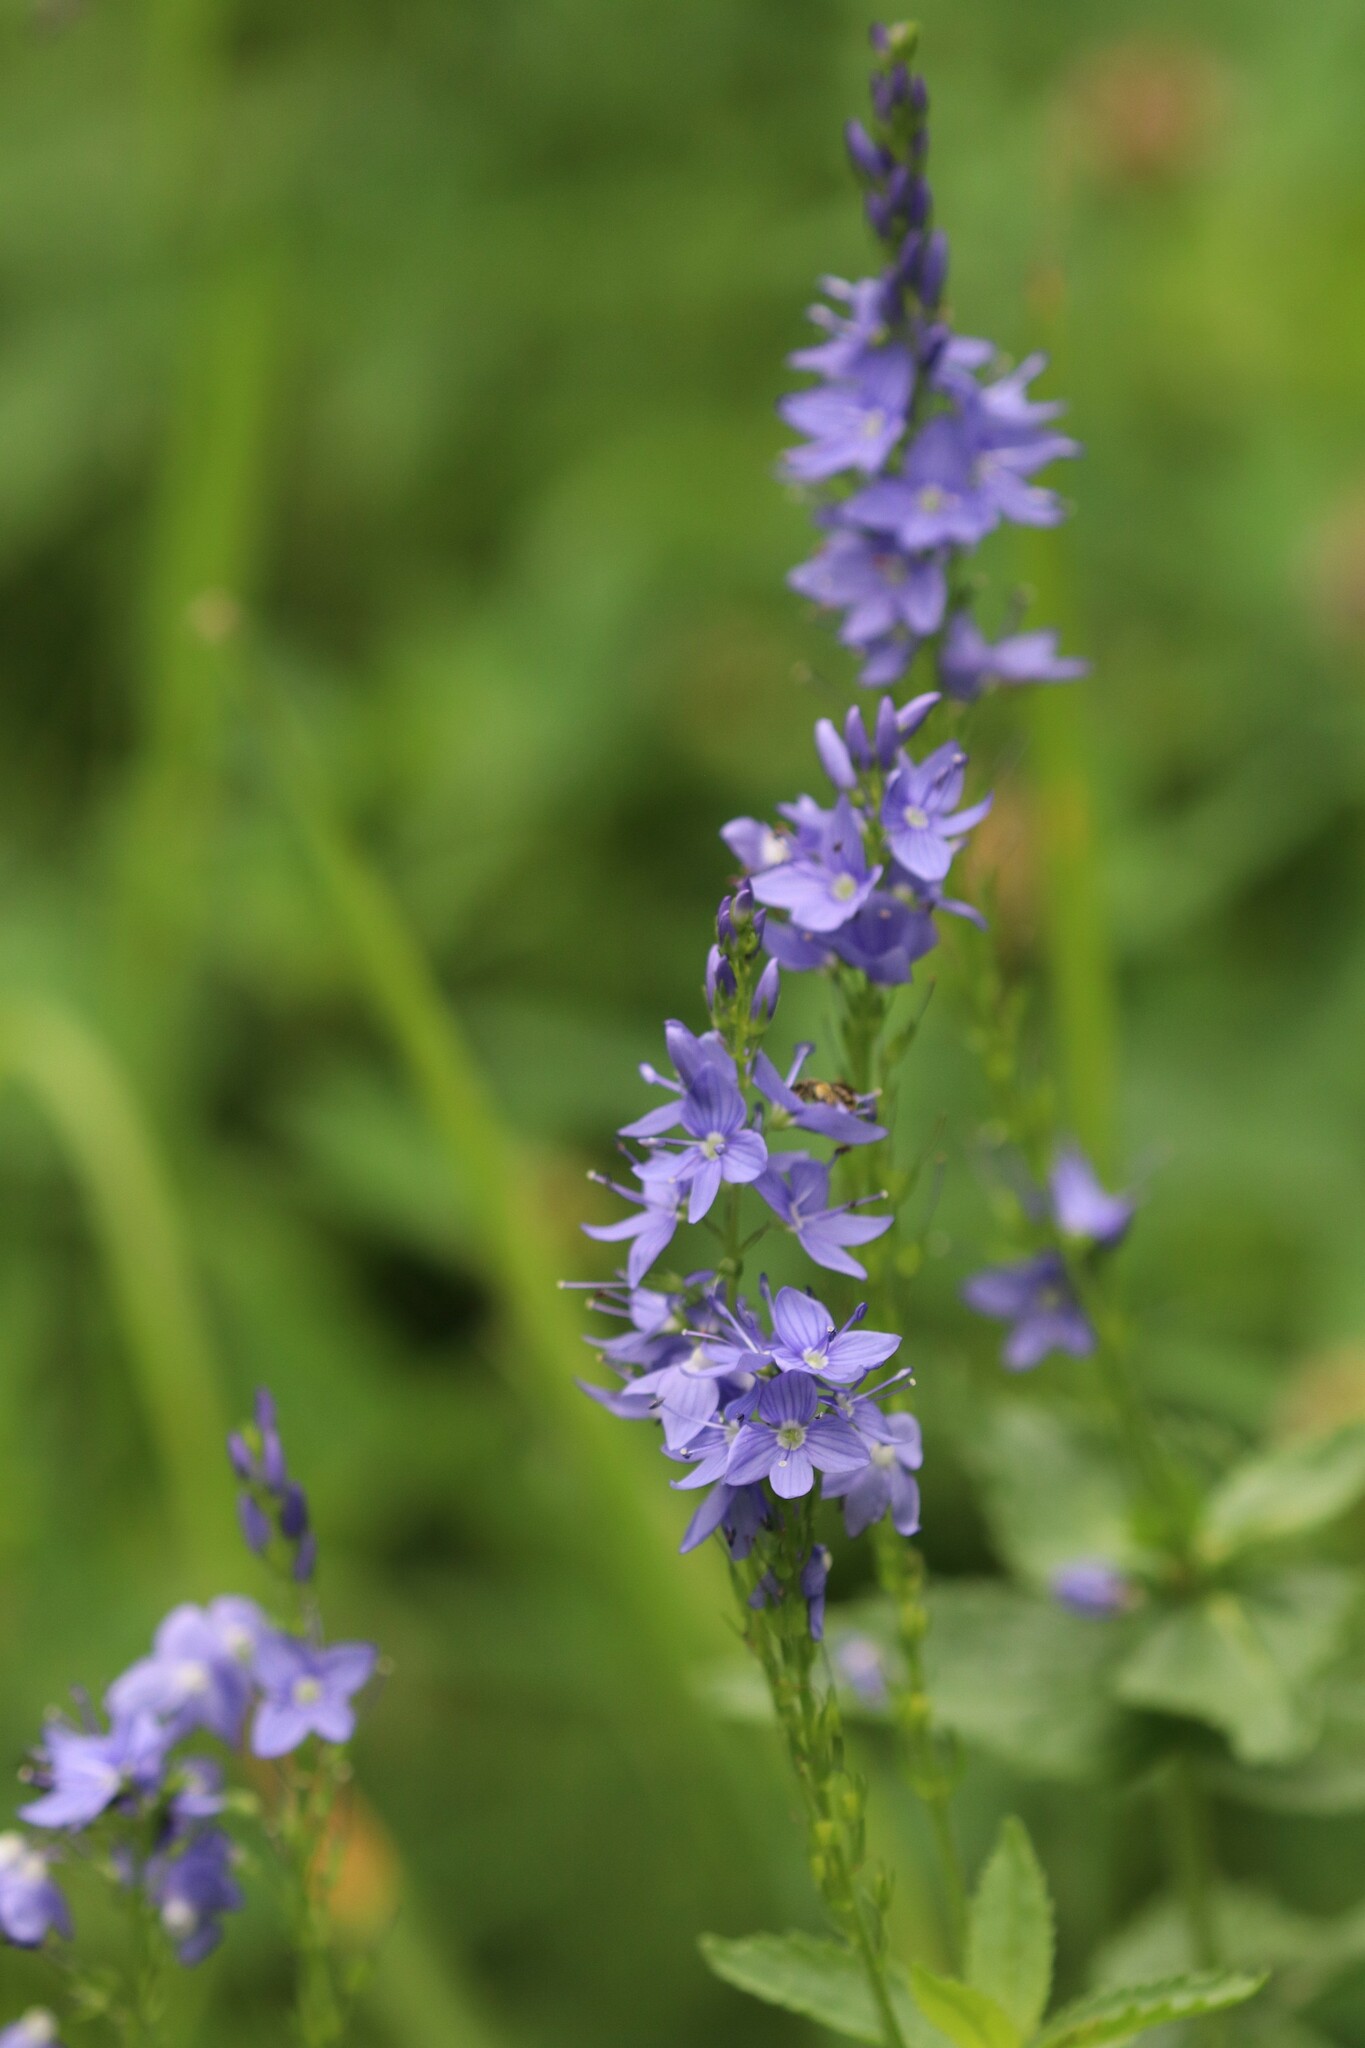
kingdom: Plantae
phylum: Tracheophyta
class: Magnoliopsida
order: Lamiales
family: Plantaginaceae
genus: Veronica
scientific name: Veronica teucrium
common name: Large speedwell
